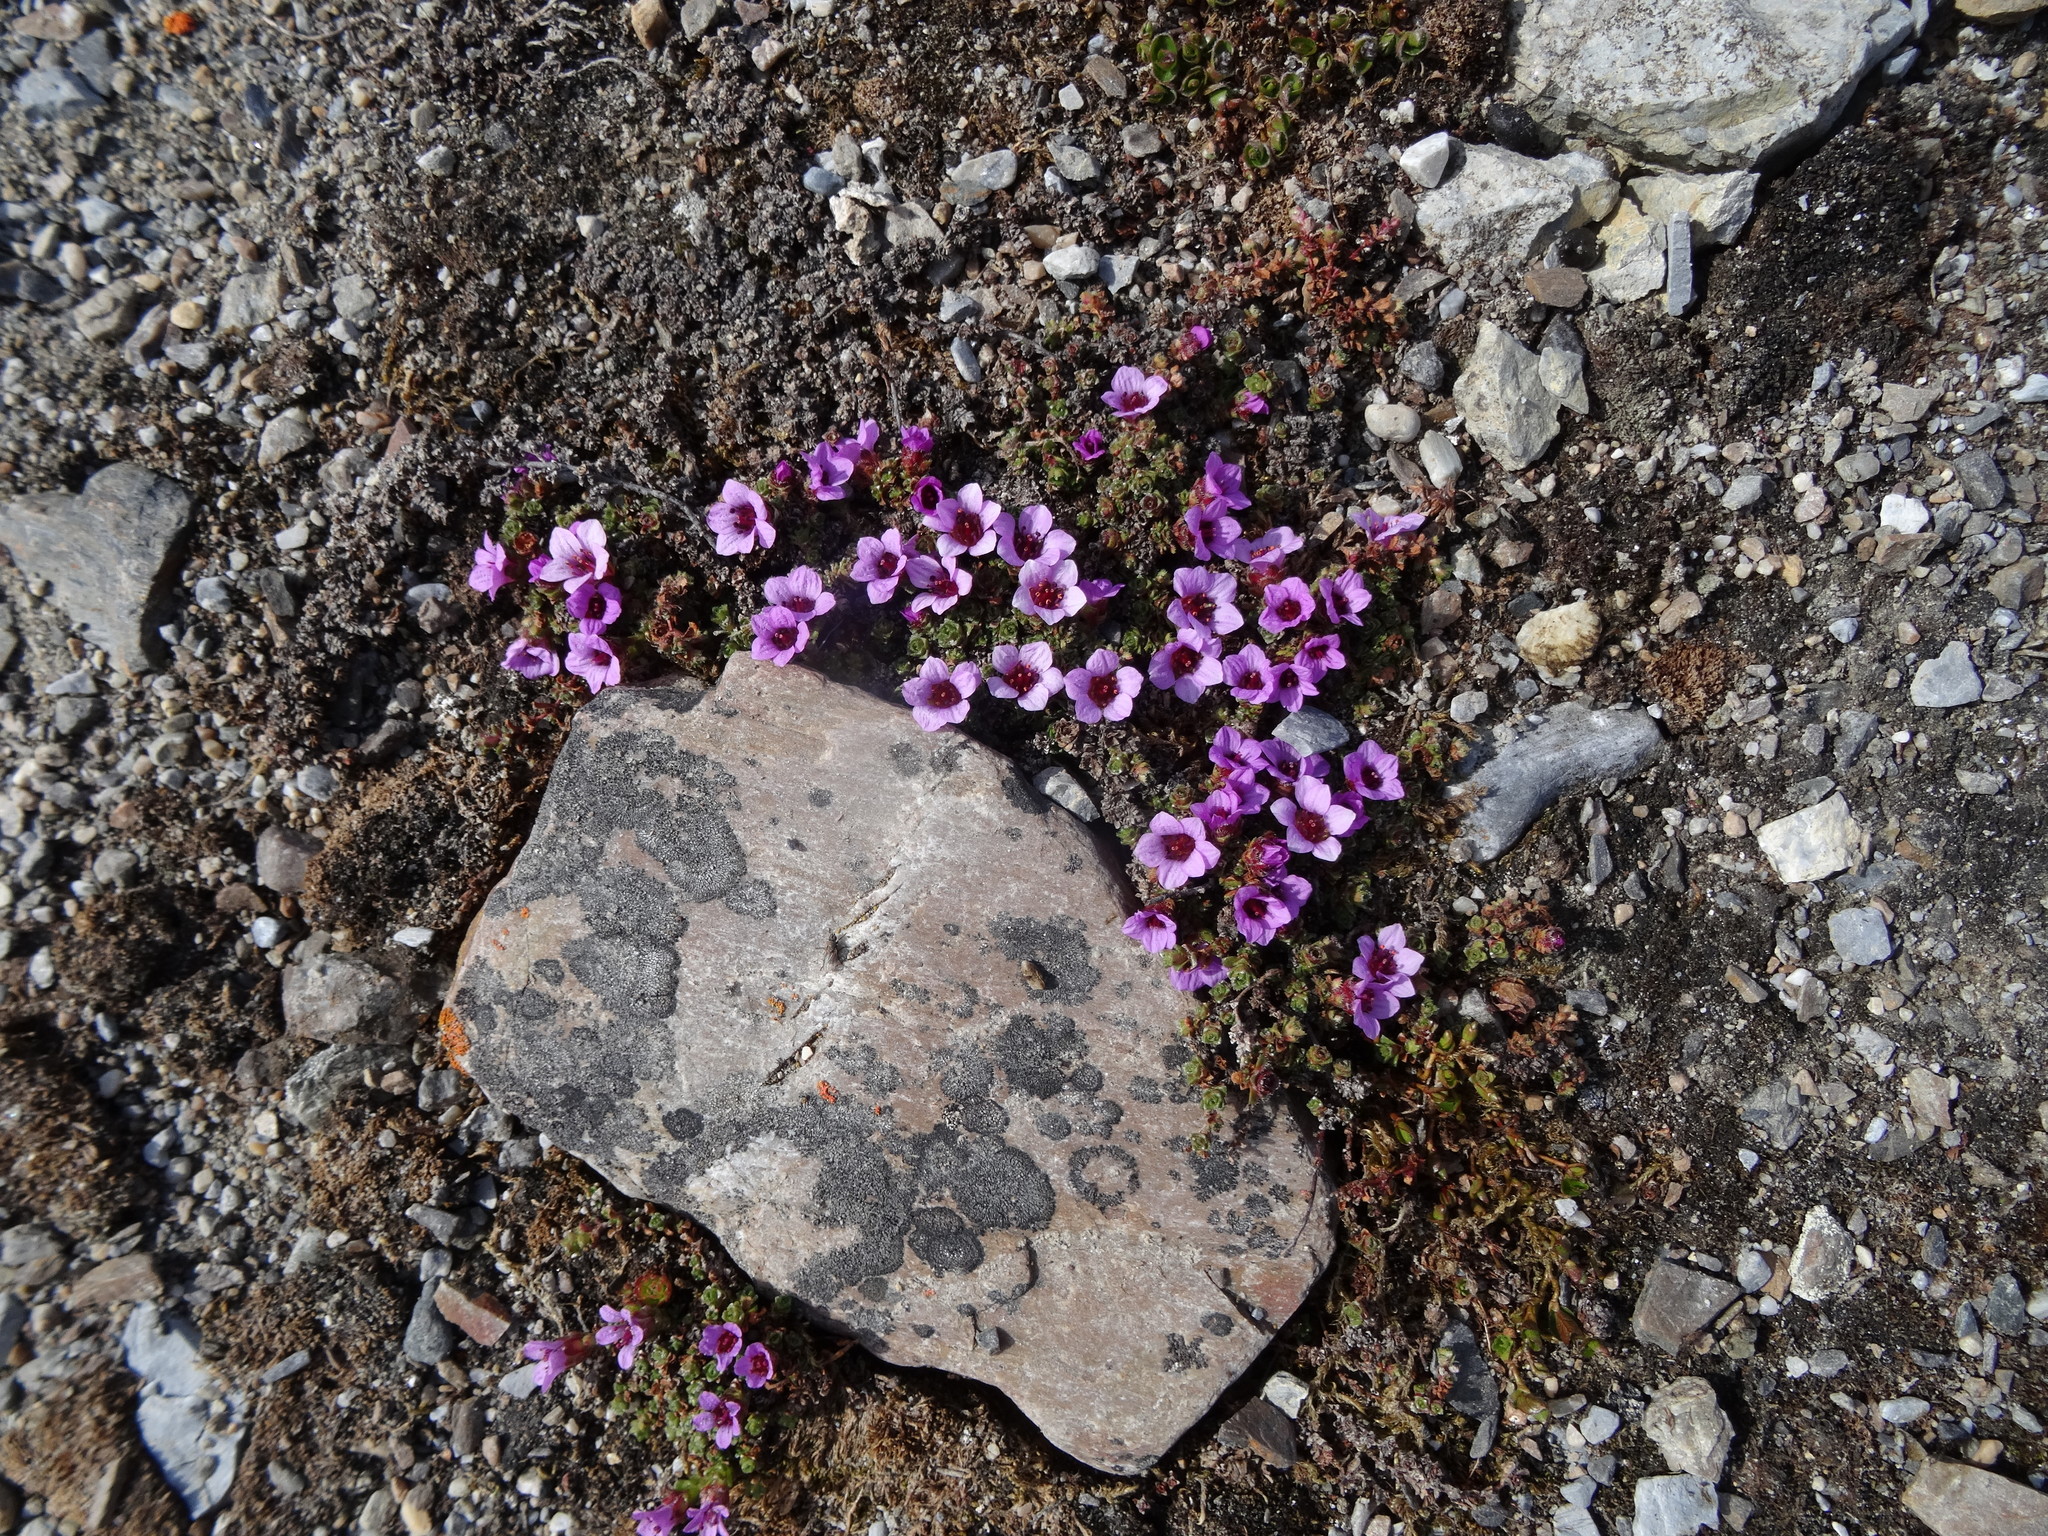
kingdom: Plantae
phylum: Tracheophyta
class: Magnoliopsida
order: Saxifragales
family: Saxifragaceae
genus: Saxifraga
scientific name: Saxifraga oppositifolia
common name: Purple saxifrage
